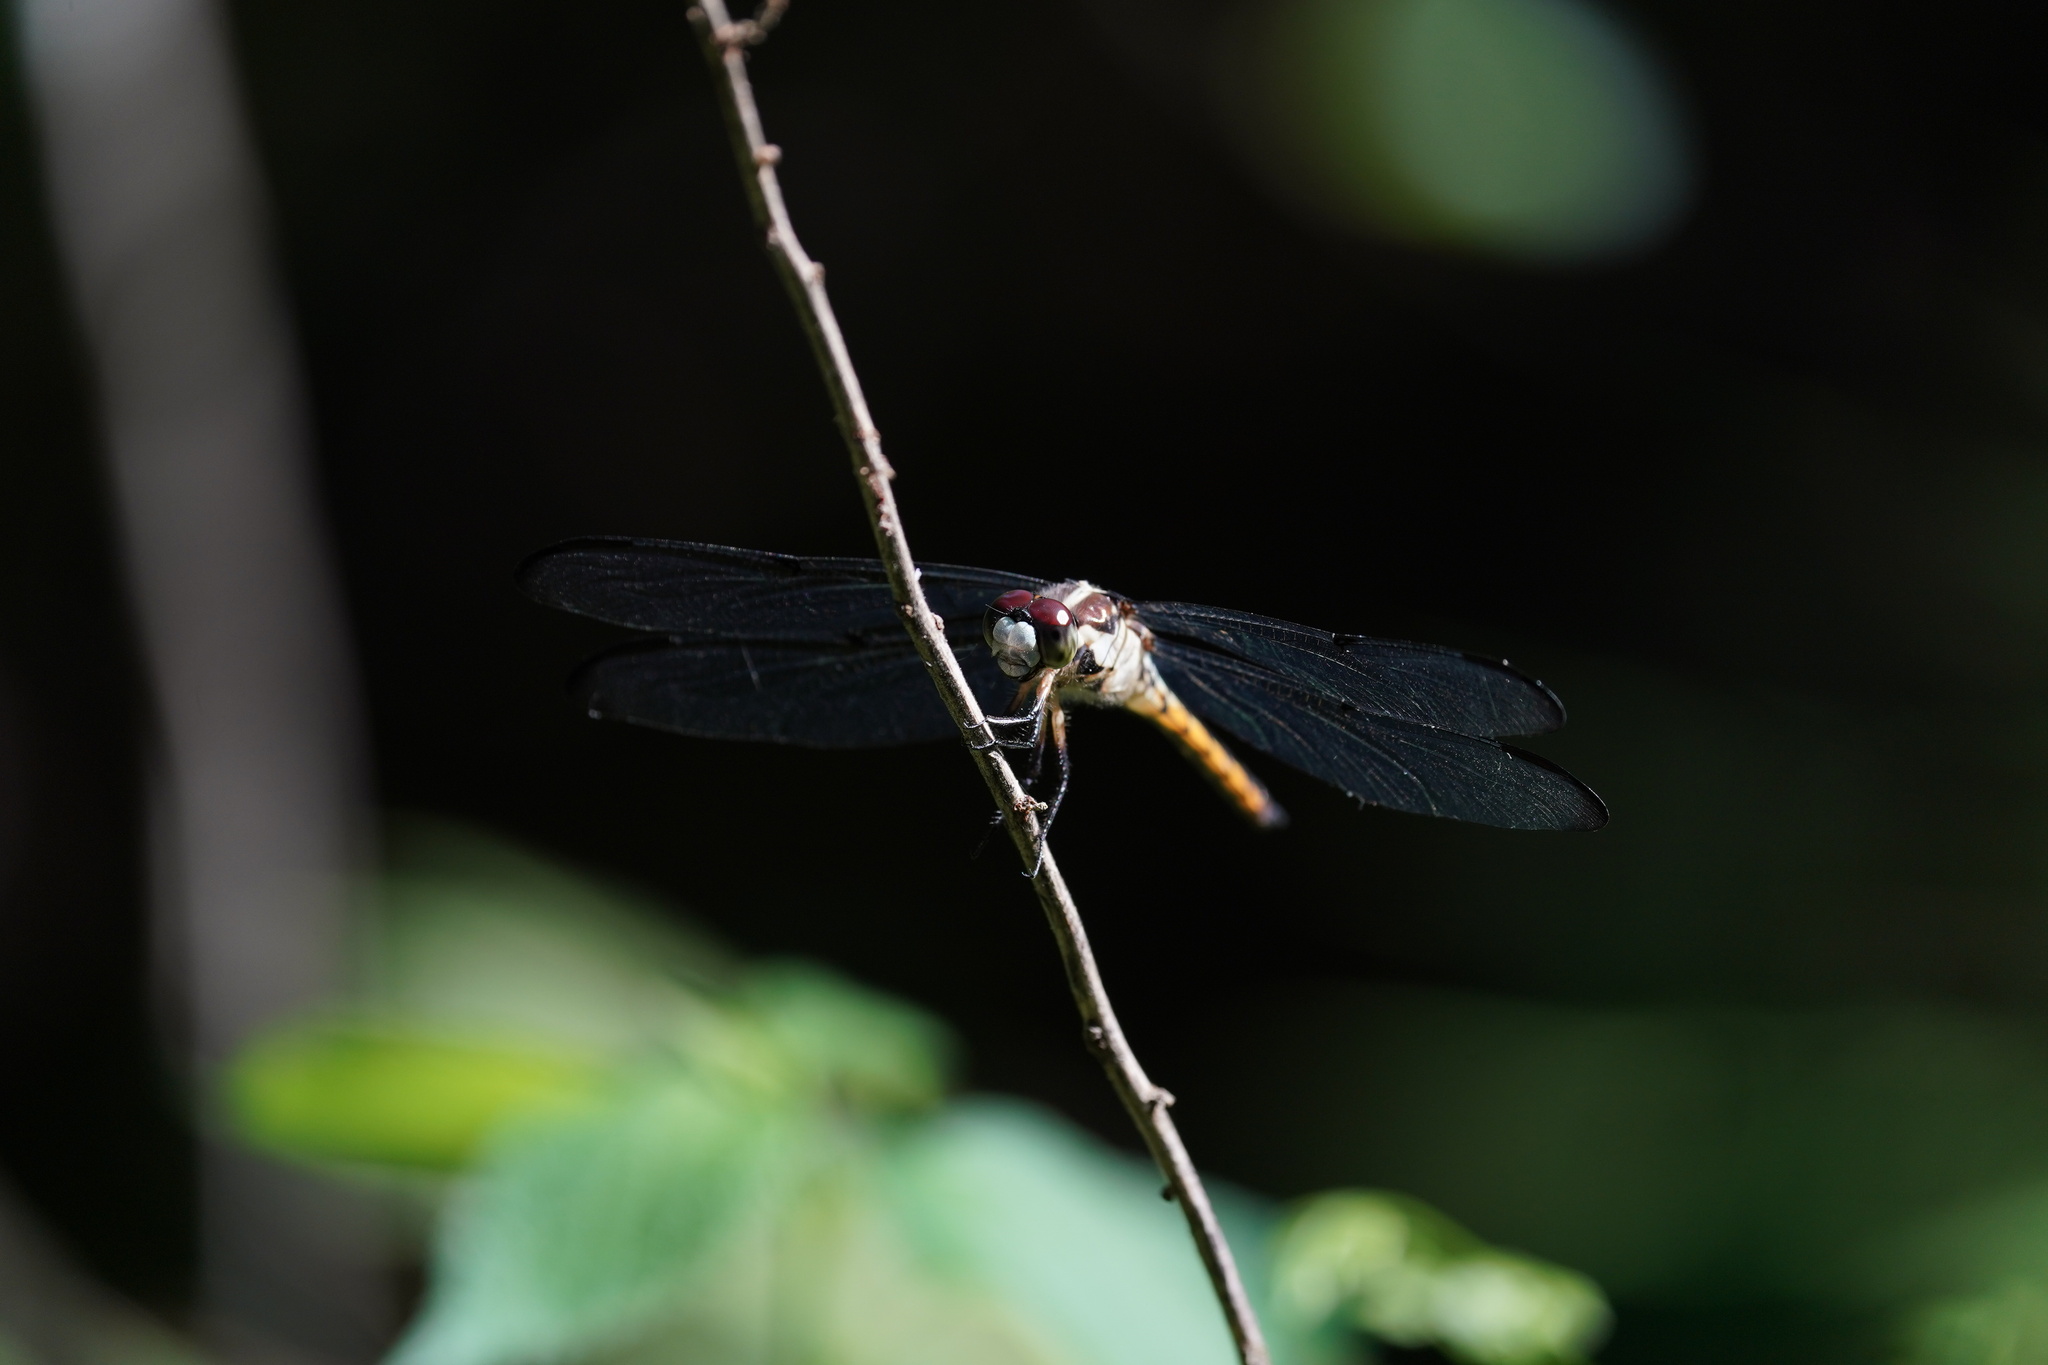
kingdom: Animalia
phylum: Arthropoda
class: Insecta
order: Odonata
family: Libellulidae
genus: Libellula
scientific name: Libellula vibrans
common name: Great blue skimmer
